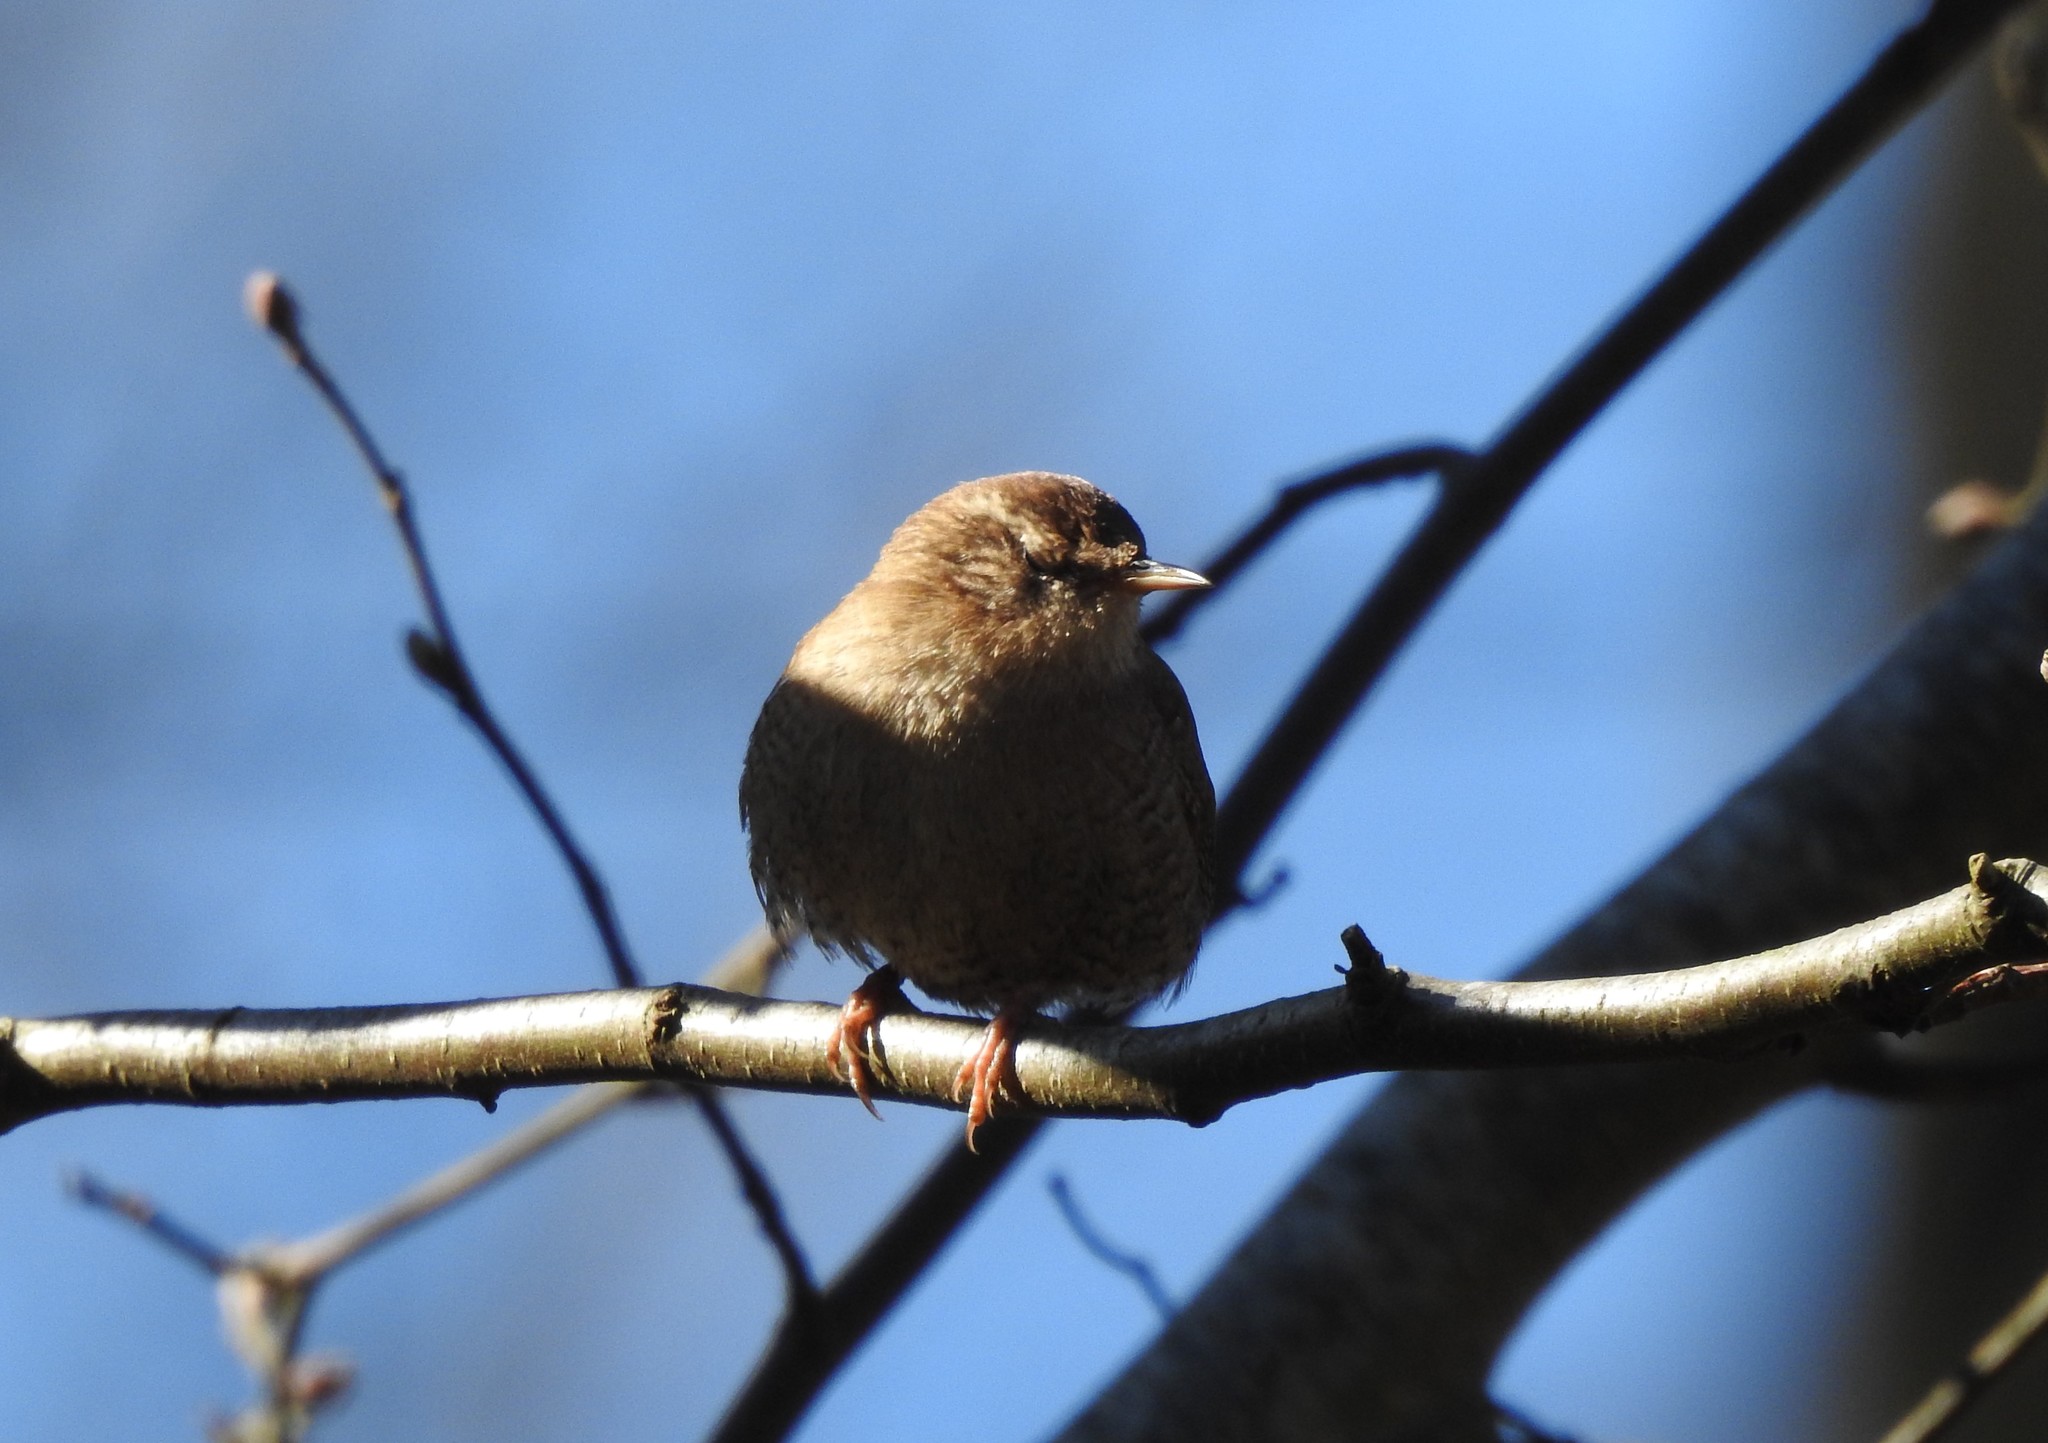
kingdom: Animalia
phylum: Chordata
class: Aves
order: Passeriformes
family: Troglodytidae
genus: Troglodytes
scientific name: Troglodytes troglodytes
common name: Eurasian wren
